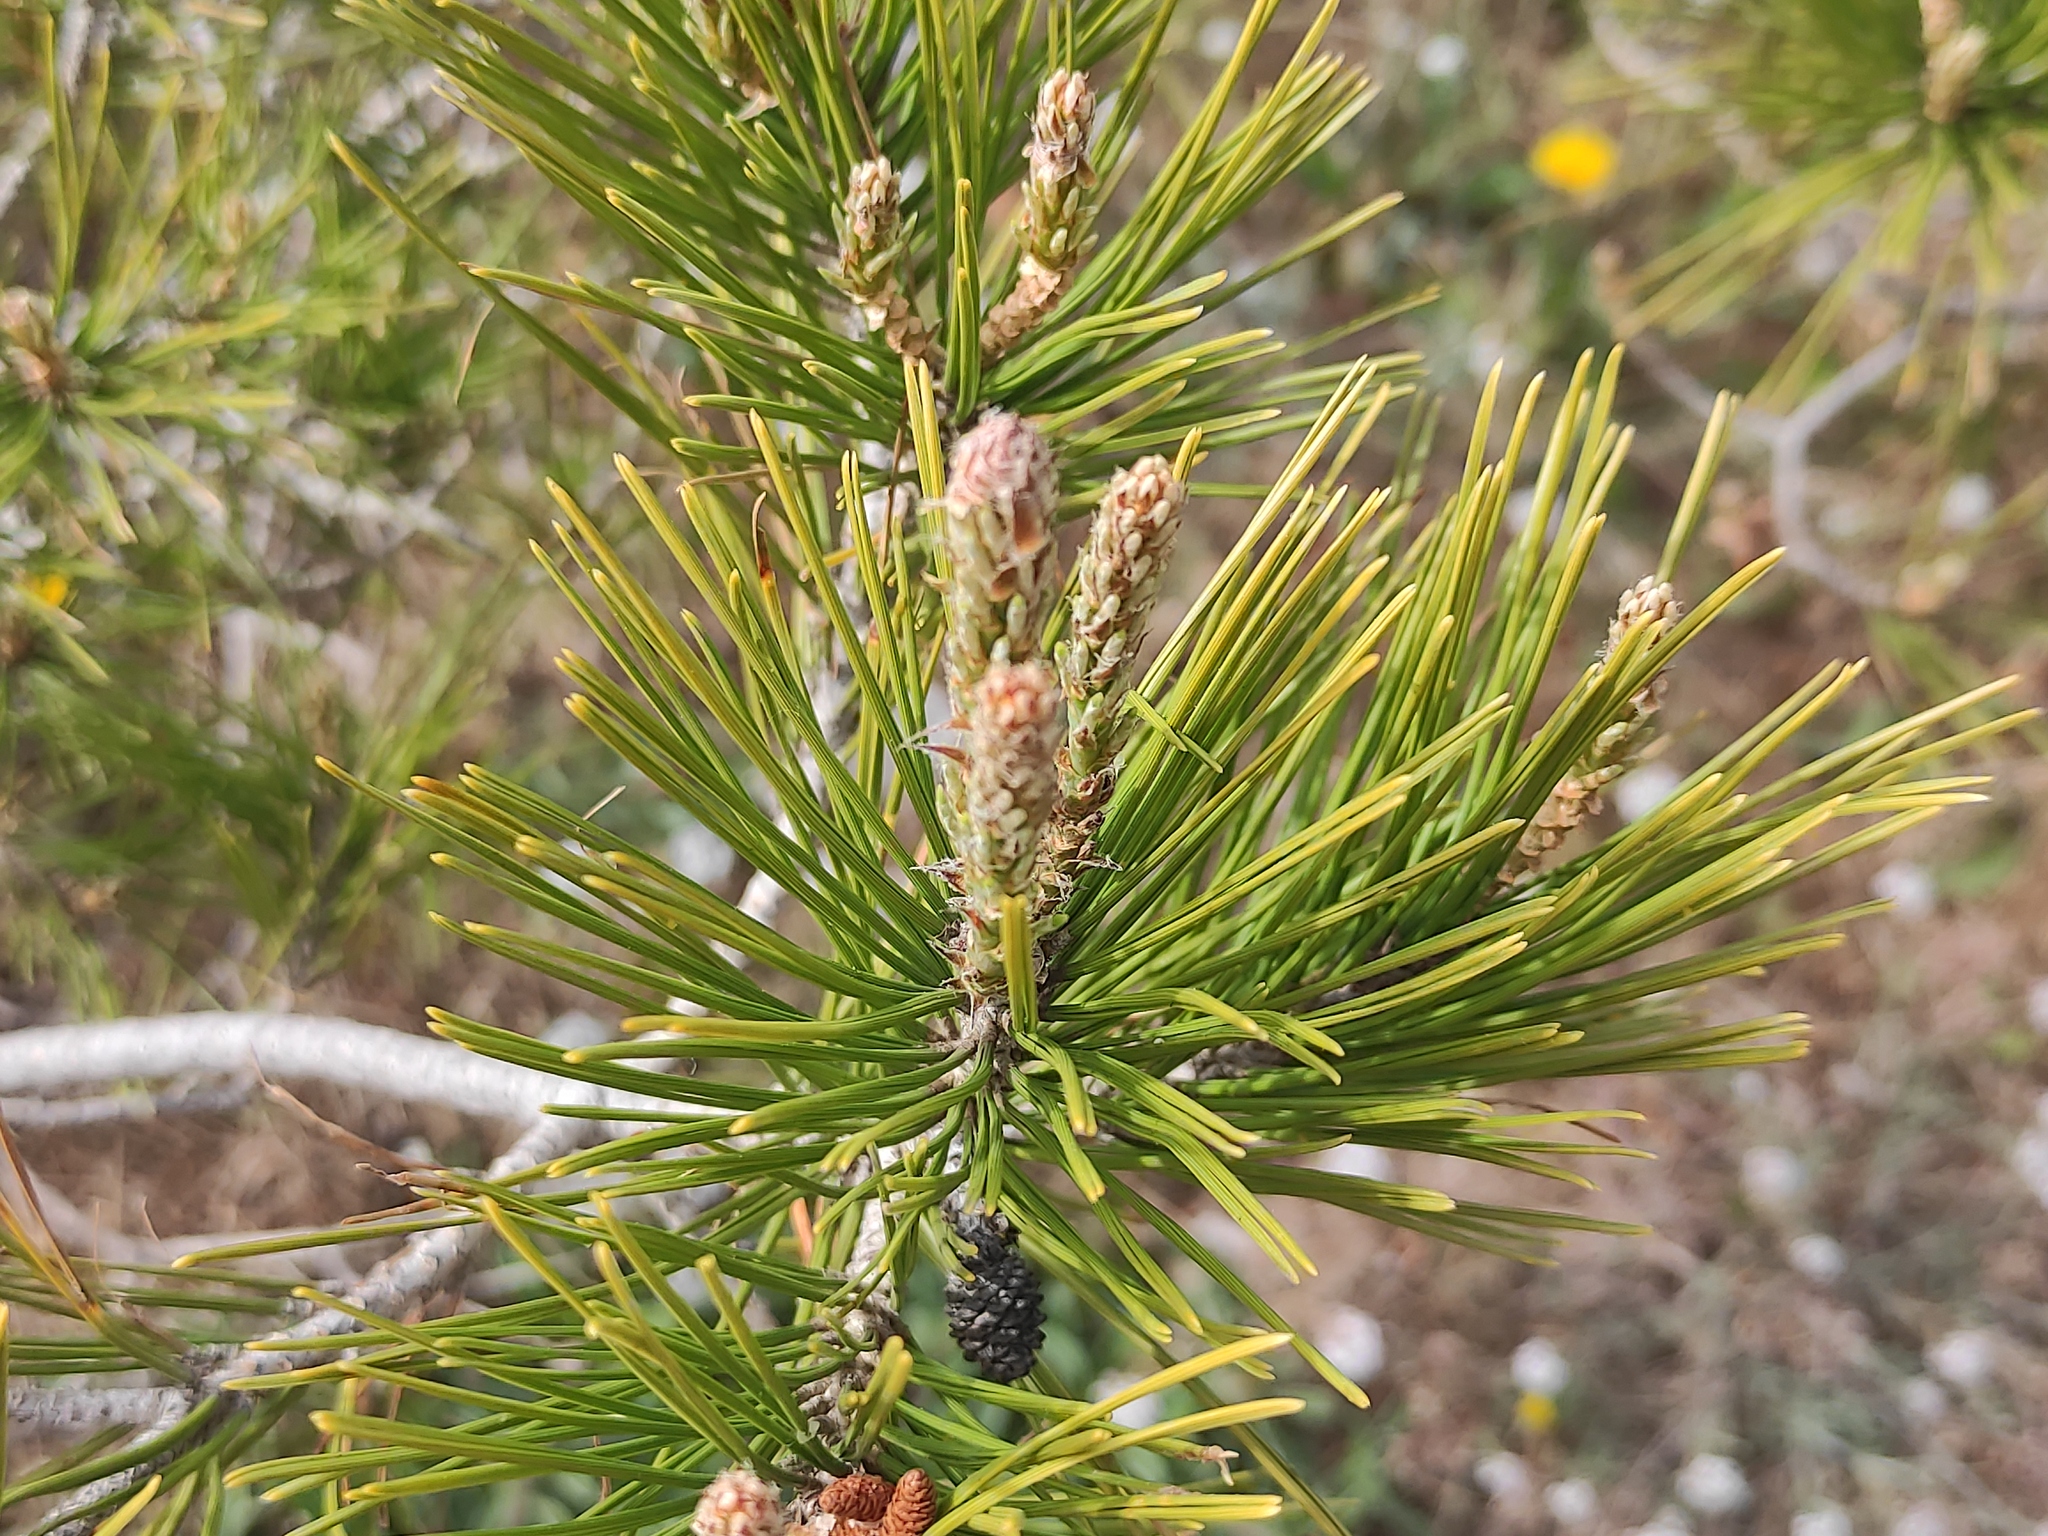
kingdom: Plantae
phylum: Tracheophyta
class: Pinopsida
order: Pinales
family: Pinaceae
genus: Pinus
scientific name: Pinus halepensis
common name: Aleppo pine
